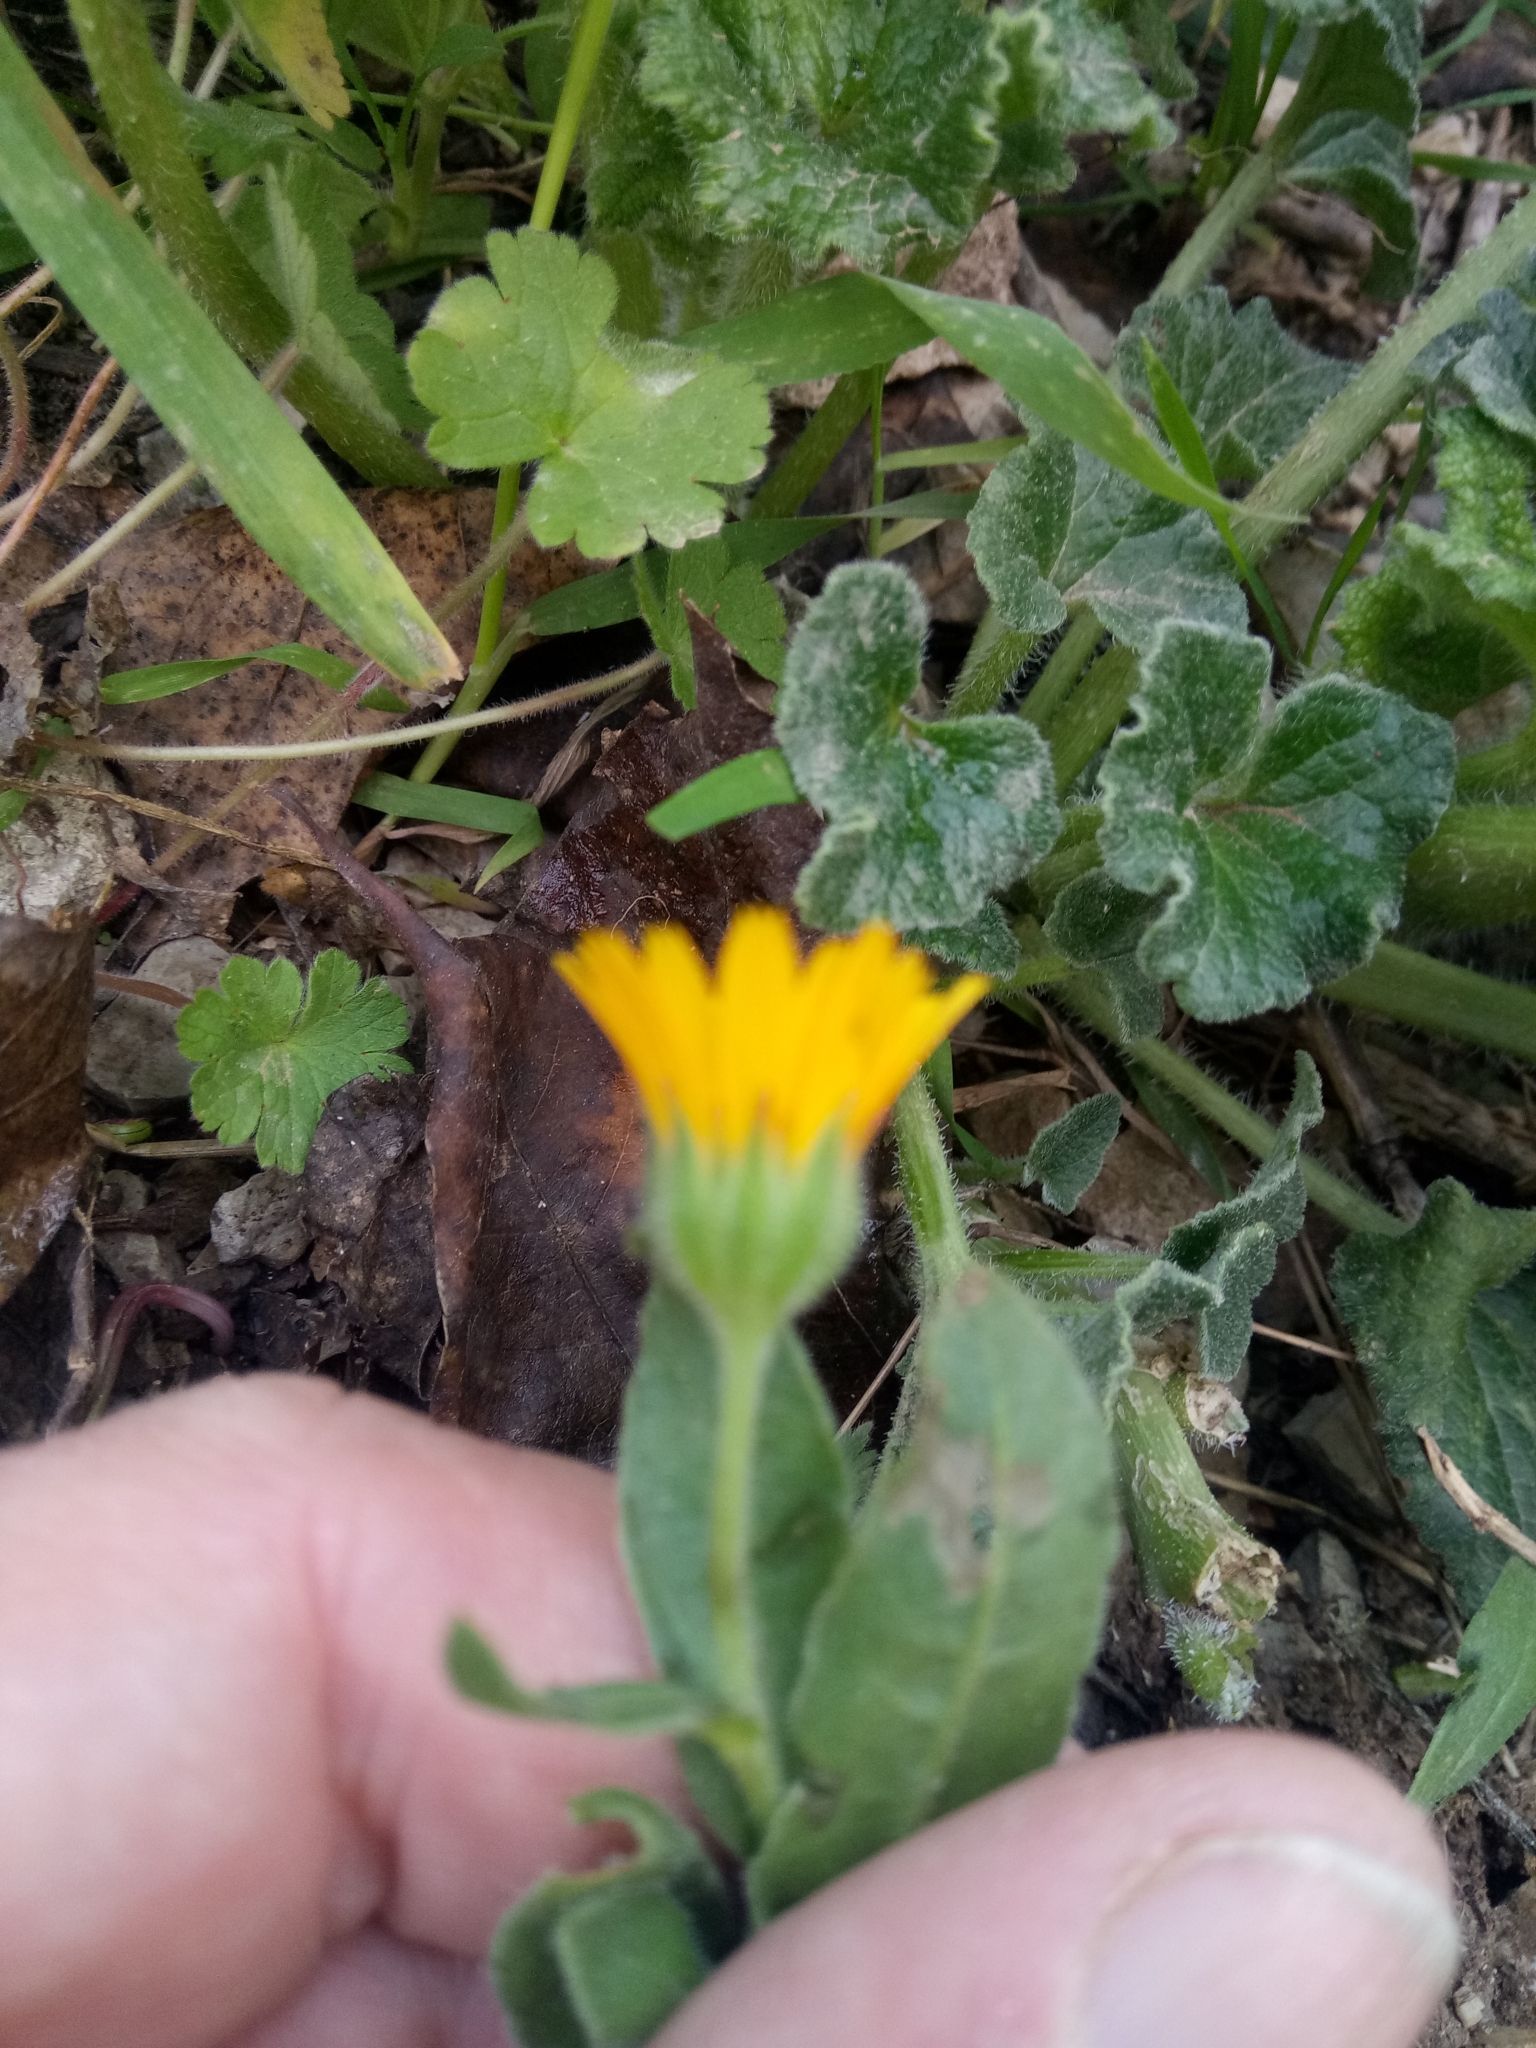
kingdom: Plantae
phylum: Tracheophyta
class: Magnoliopsida
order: Asterales
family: Asteraceae
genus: Calendula
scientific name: Calendula arvensis
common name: Field marigold
